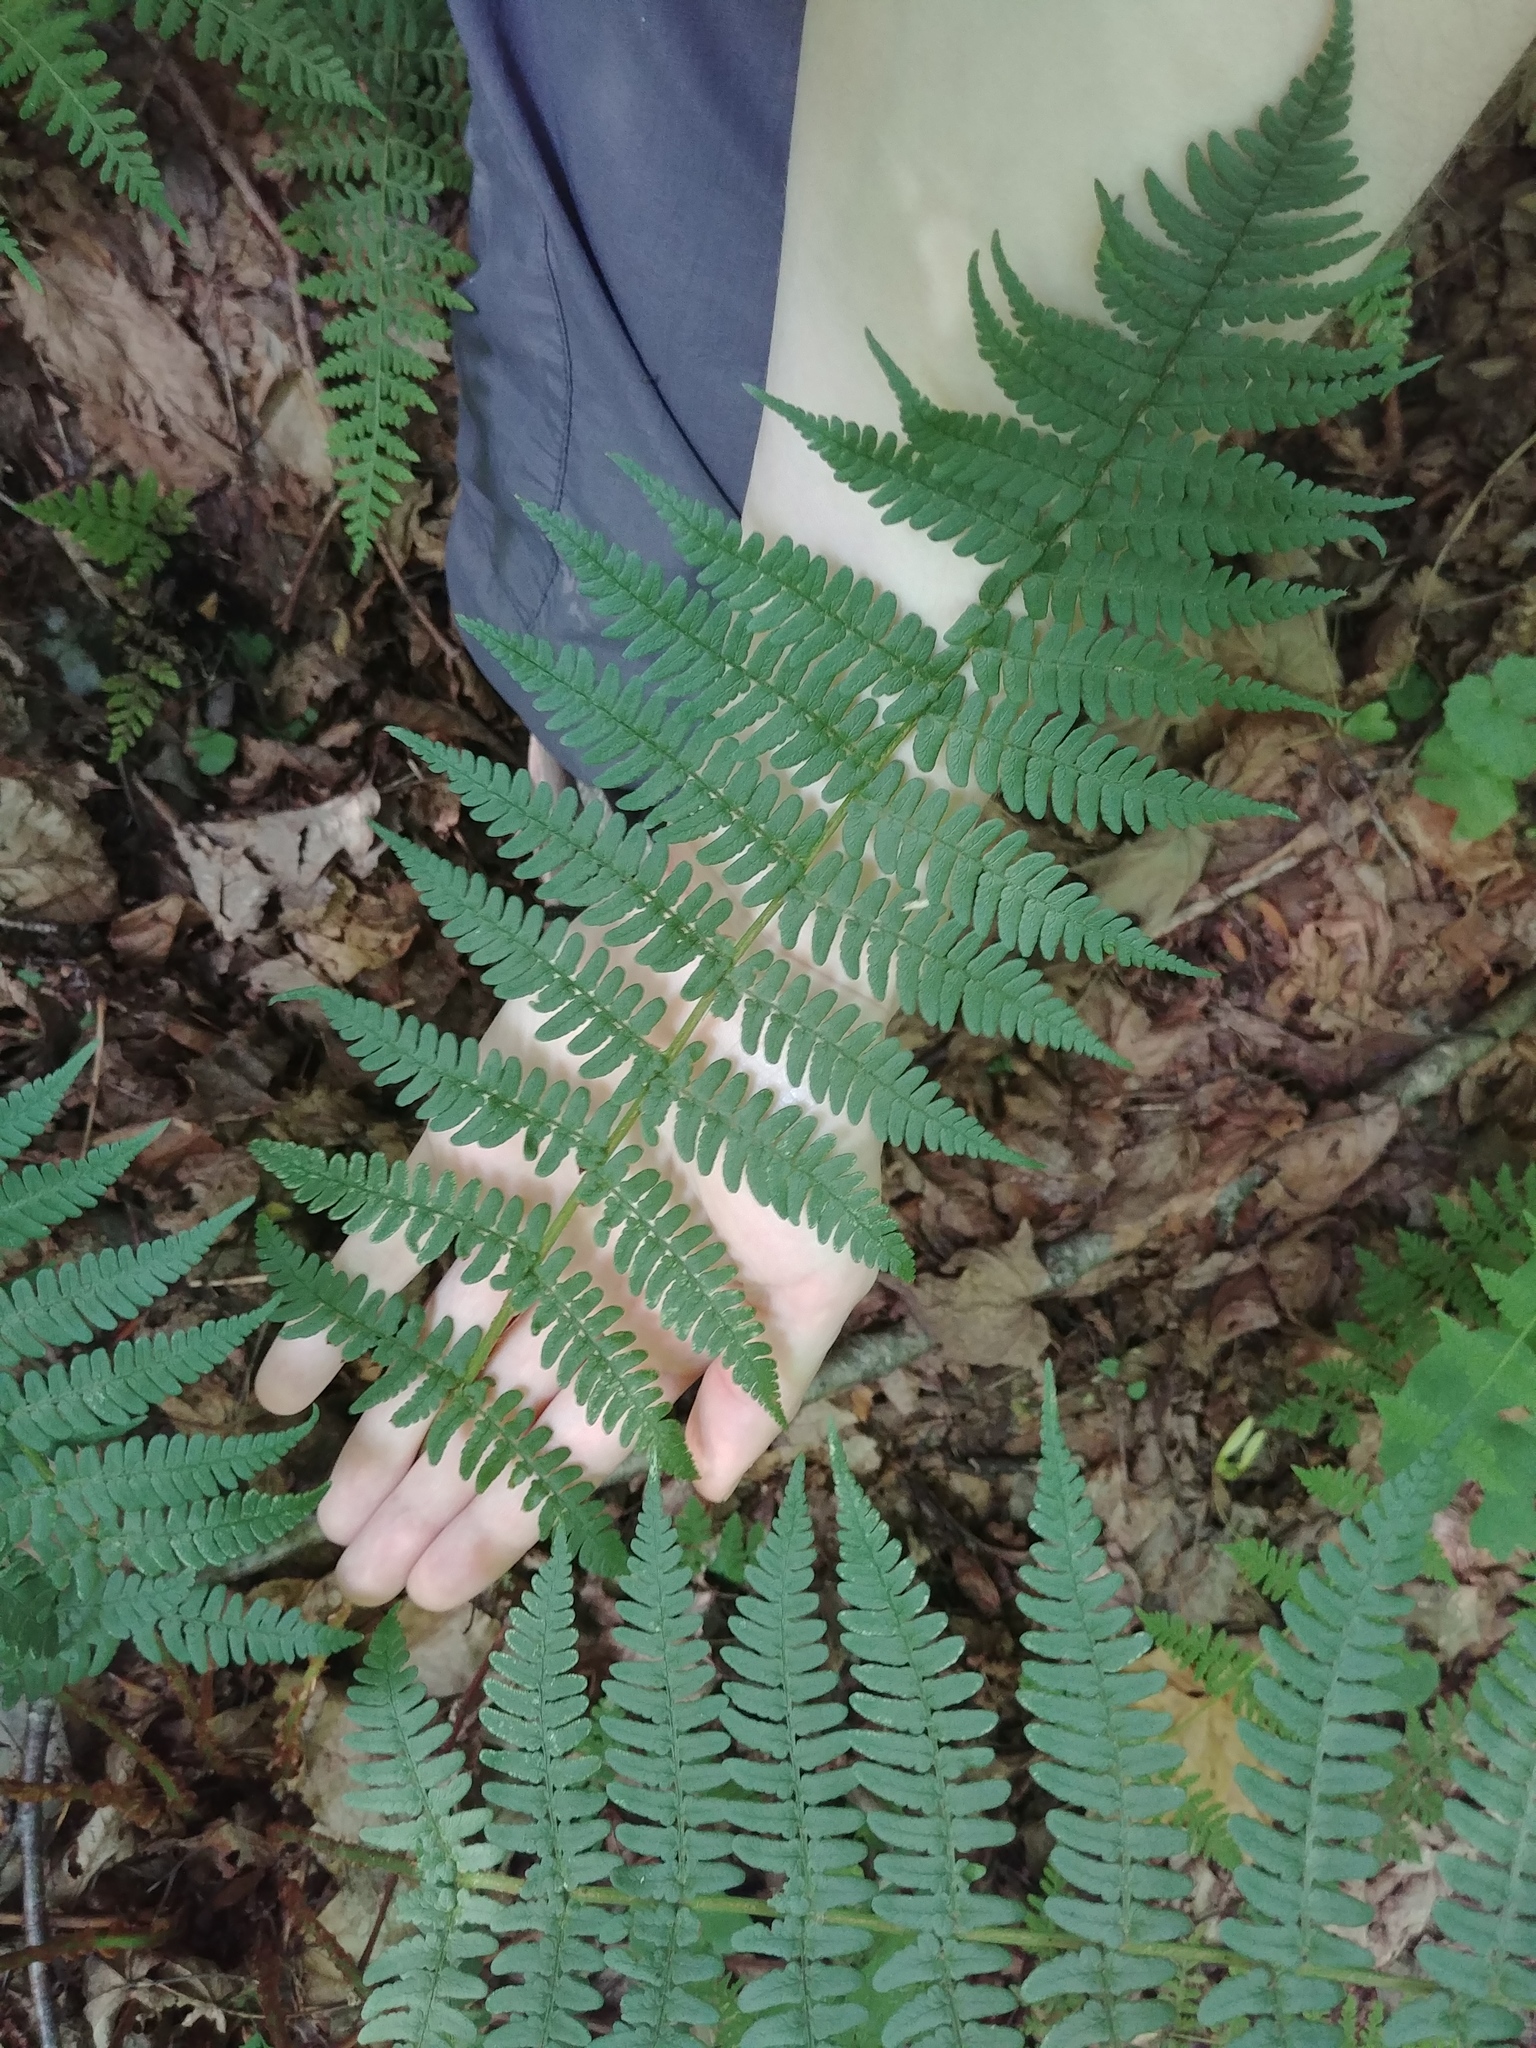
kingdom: Plantae
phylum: Tracheophyta
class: Polypodiopsida
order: Polypodiales
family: Dryopteridaceae
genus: Dryopteris
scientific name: Dryopteris marginalis
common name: Marginal wood fern
